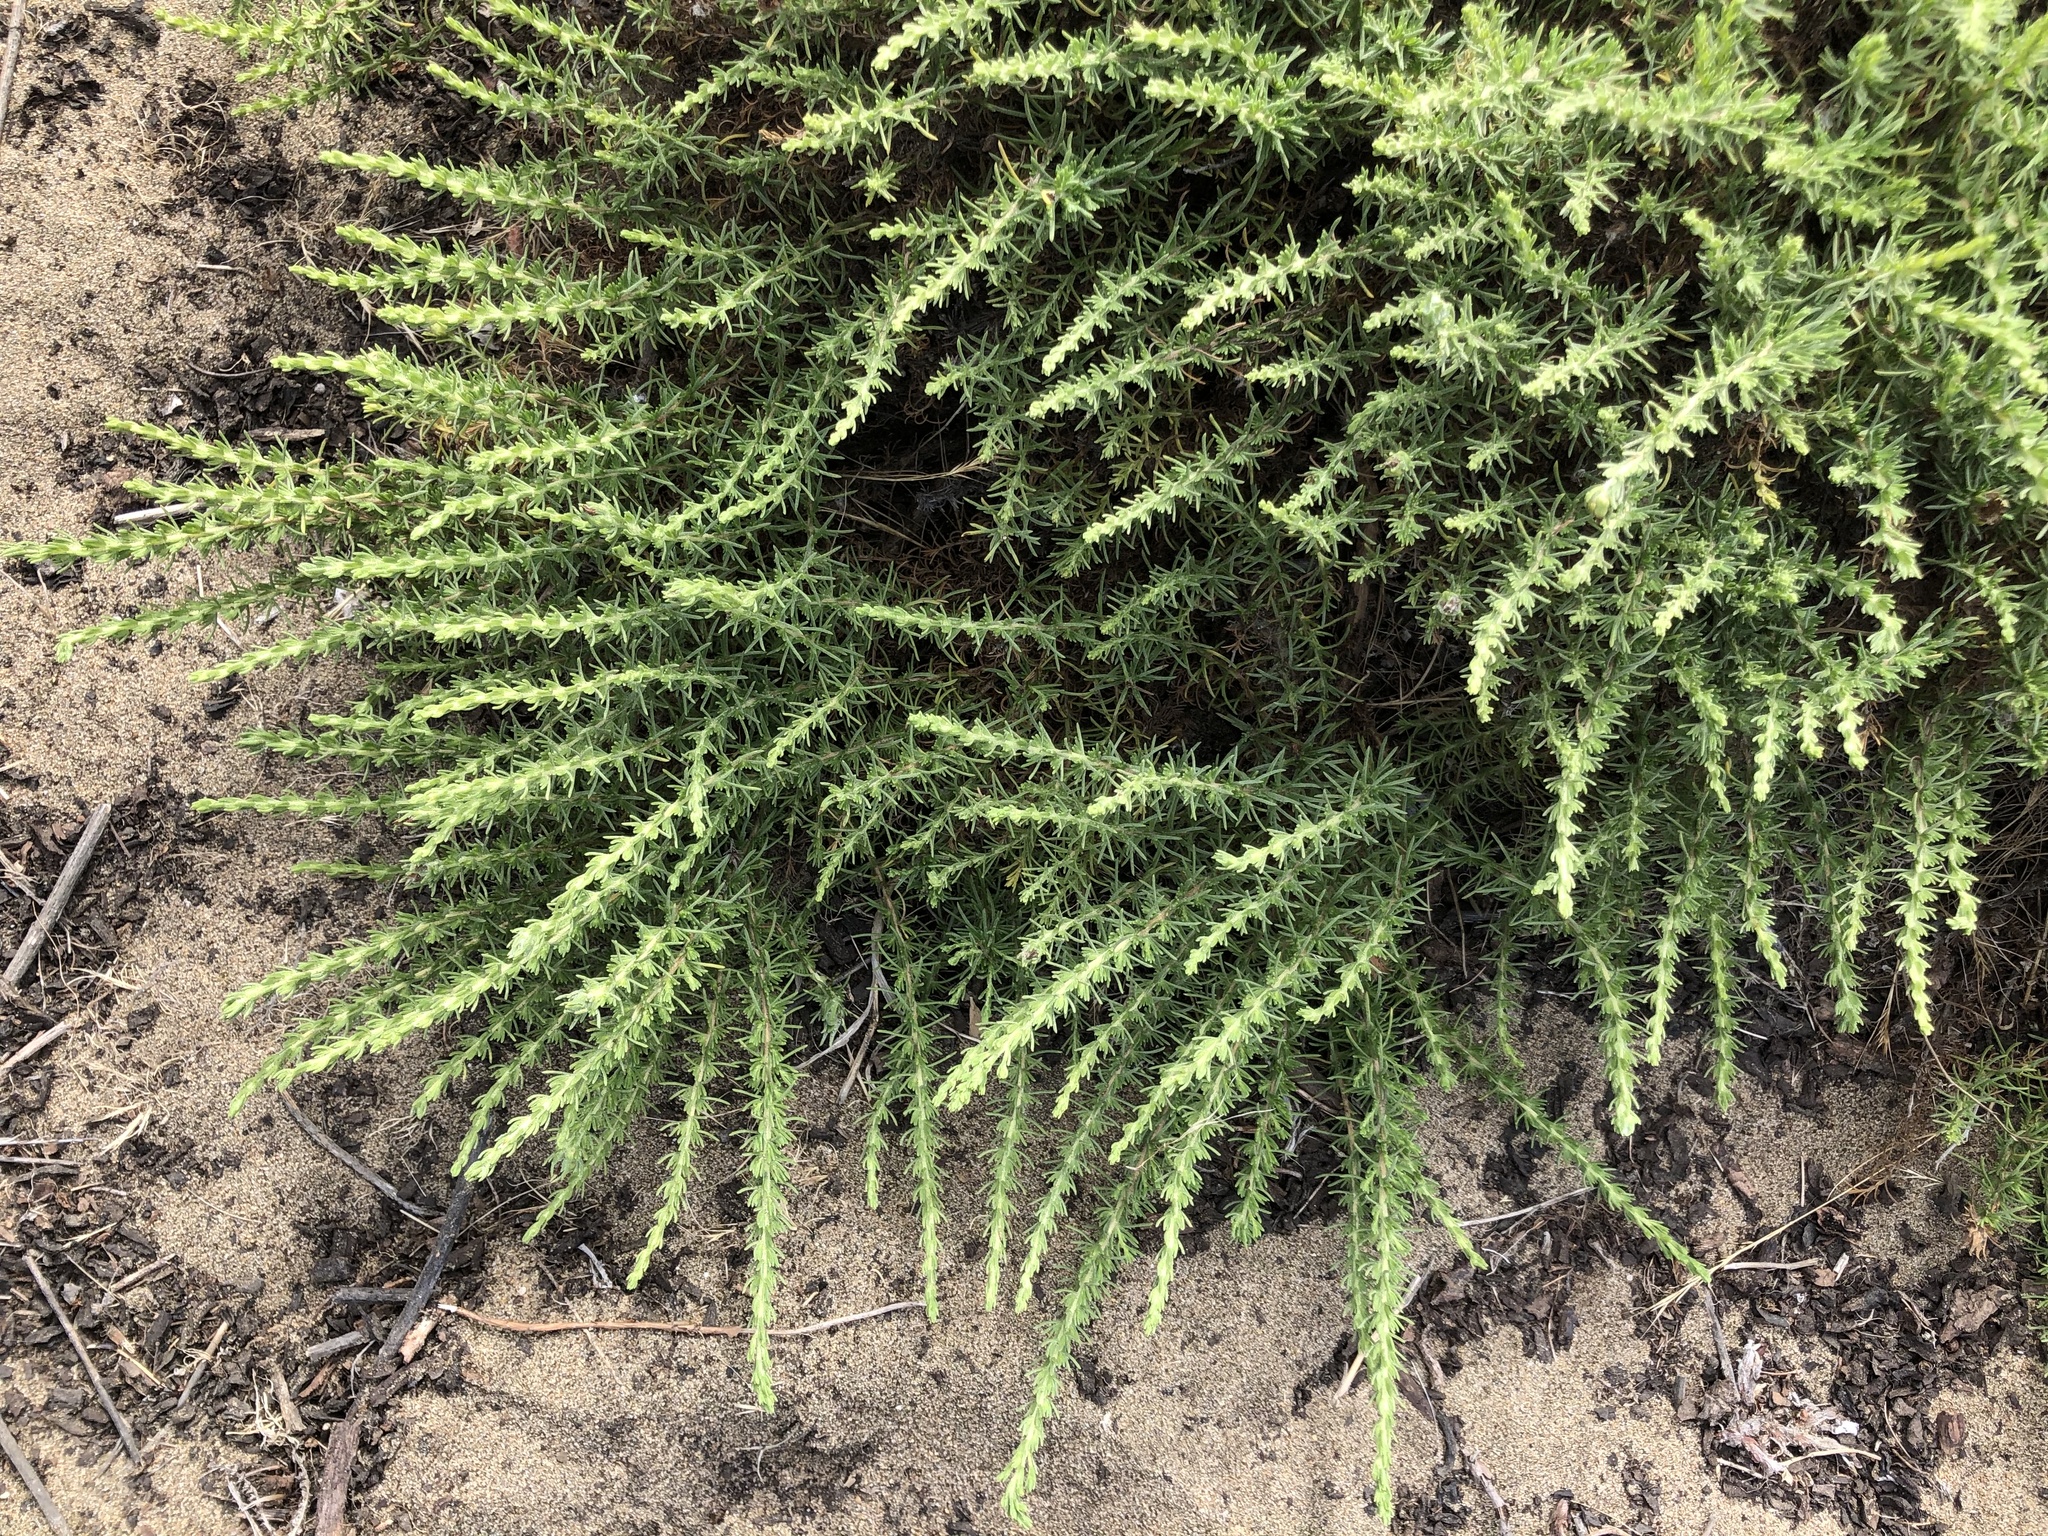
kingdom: Plantae
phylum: Tracheophyta
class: Magnoliopsida
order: Asterales
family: Asteraceae
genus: Ericameria
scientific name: Ericameria ericoides
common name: California goldenbush
